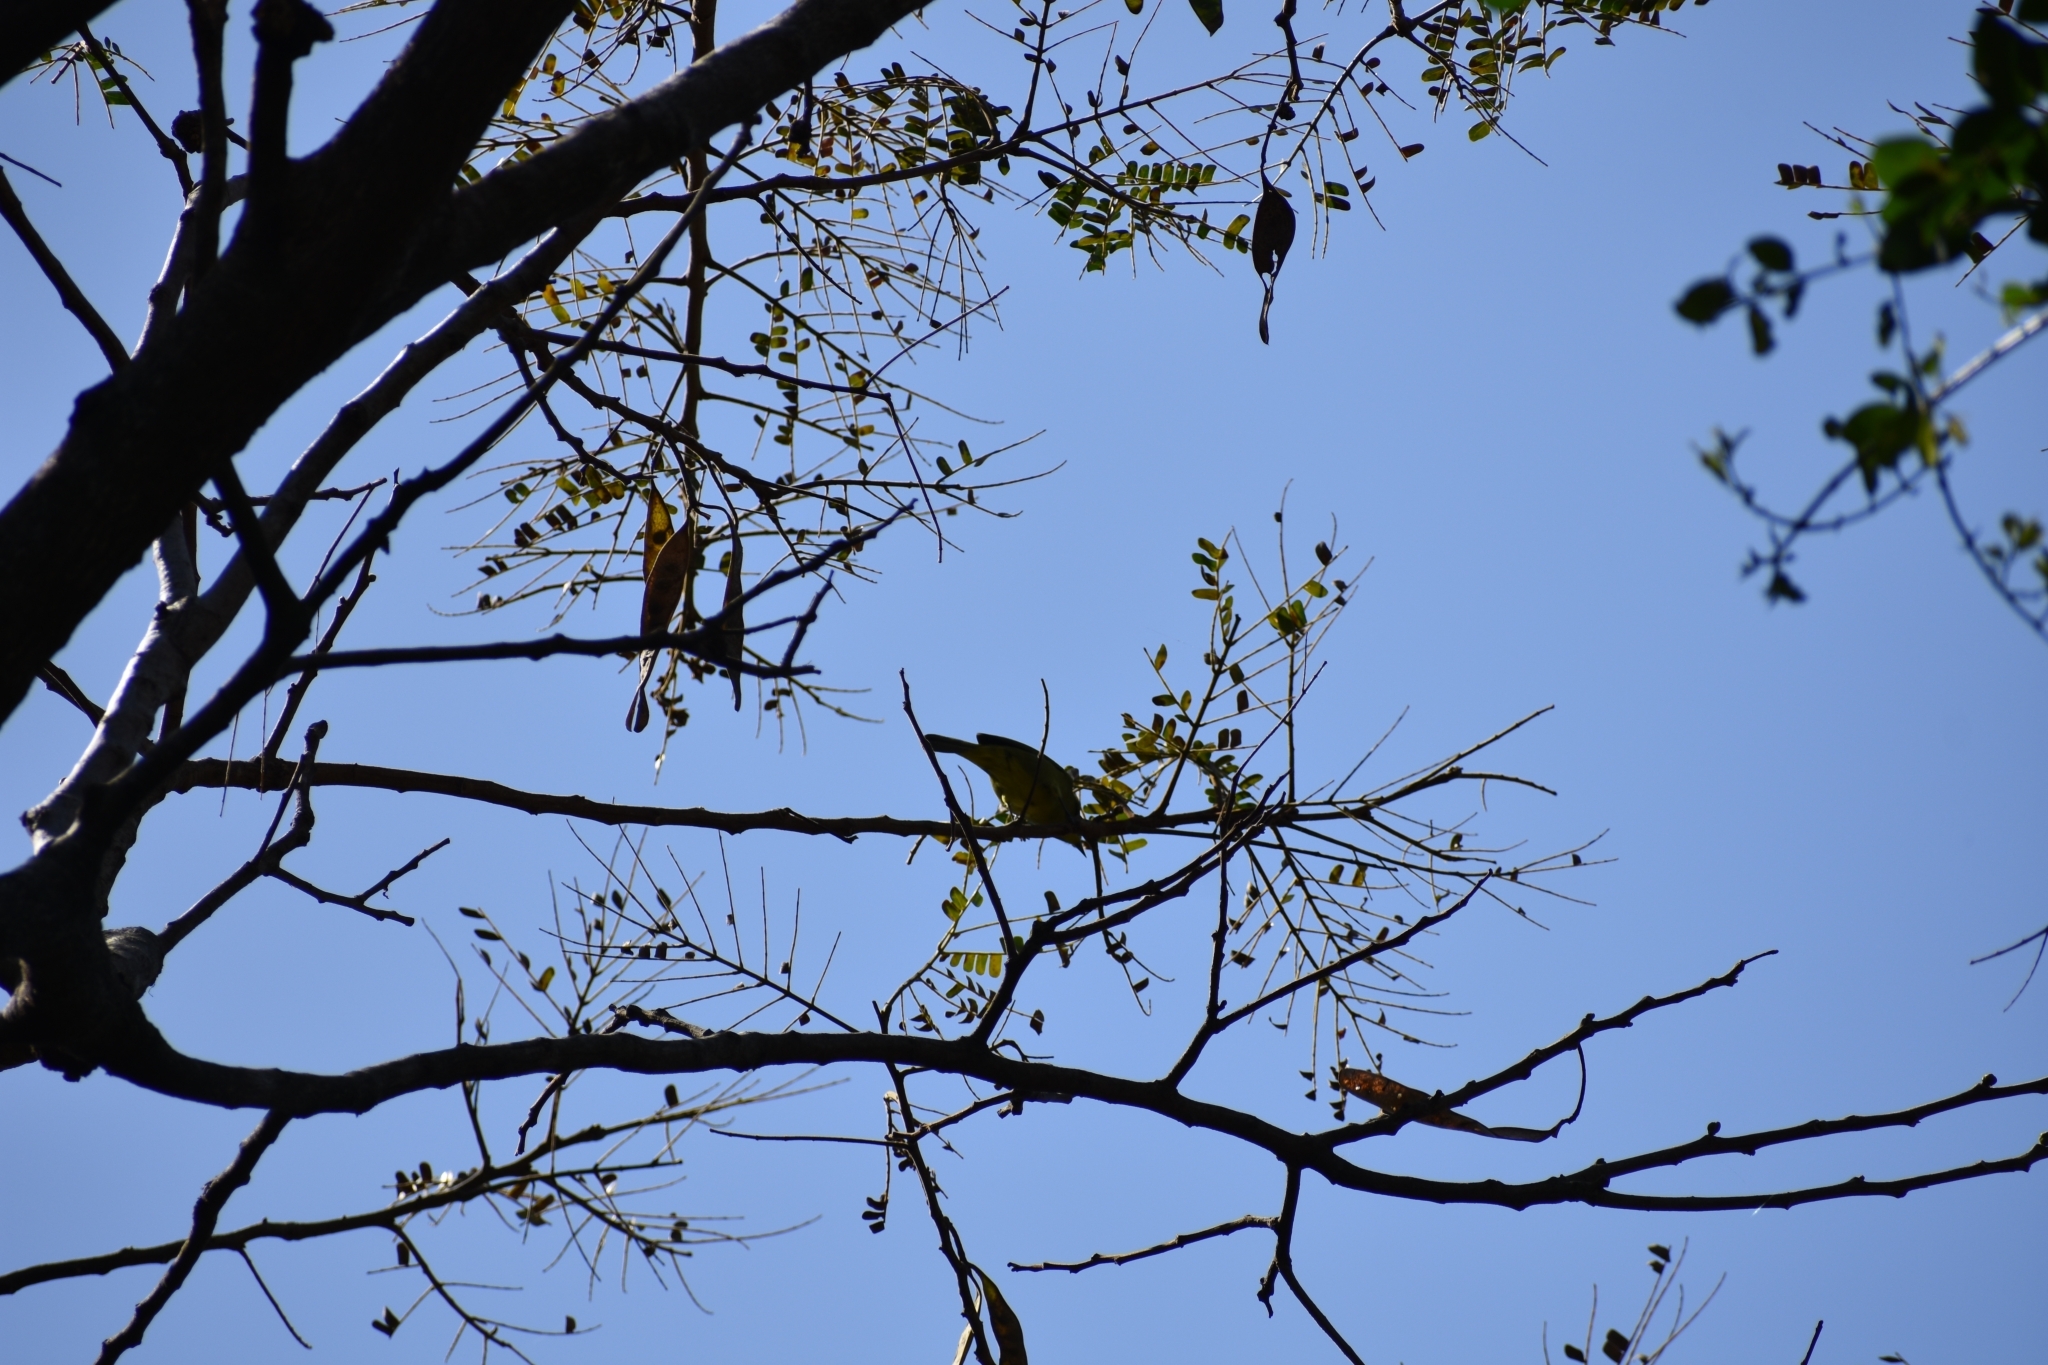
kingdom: Animalia
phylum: Chordata
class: Aves
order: Passeriformes
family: Zosteropidae
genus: Zosterops
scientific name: Zosterops virens
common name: Cape white-eye
